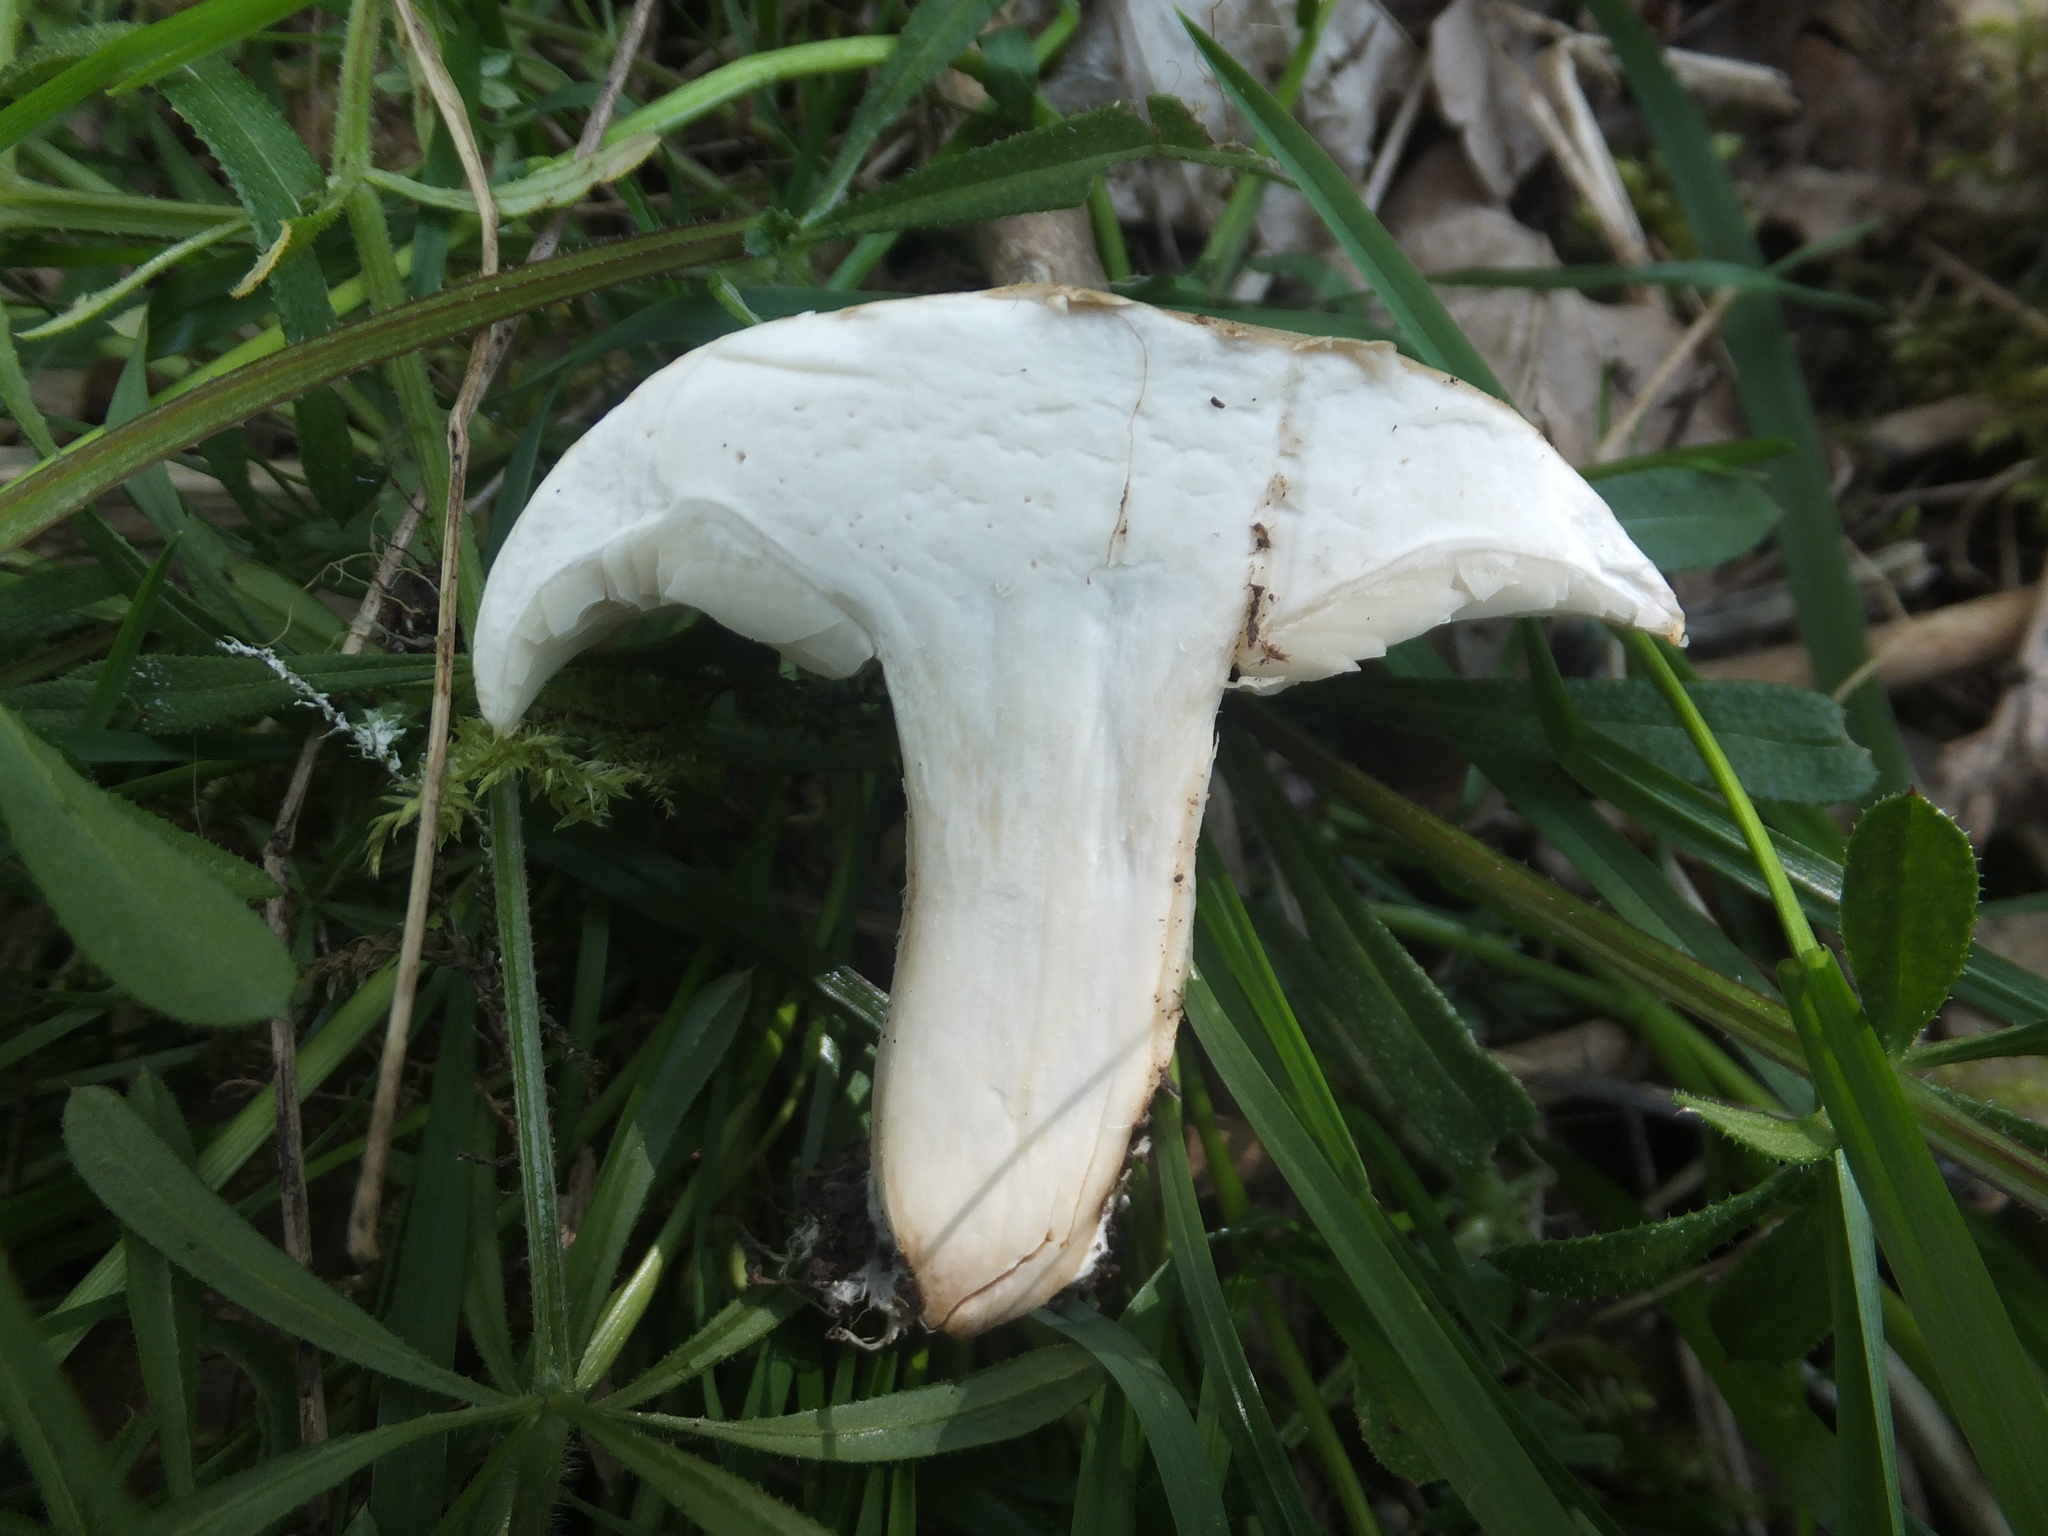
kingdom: Fungi
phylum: Basidiomycota
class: Agaricomycetes
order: Agaricales
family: Lyophyllaceae
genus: Calocybe
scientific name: Calocybe gambosa
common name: St. george's mushroom
